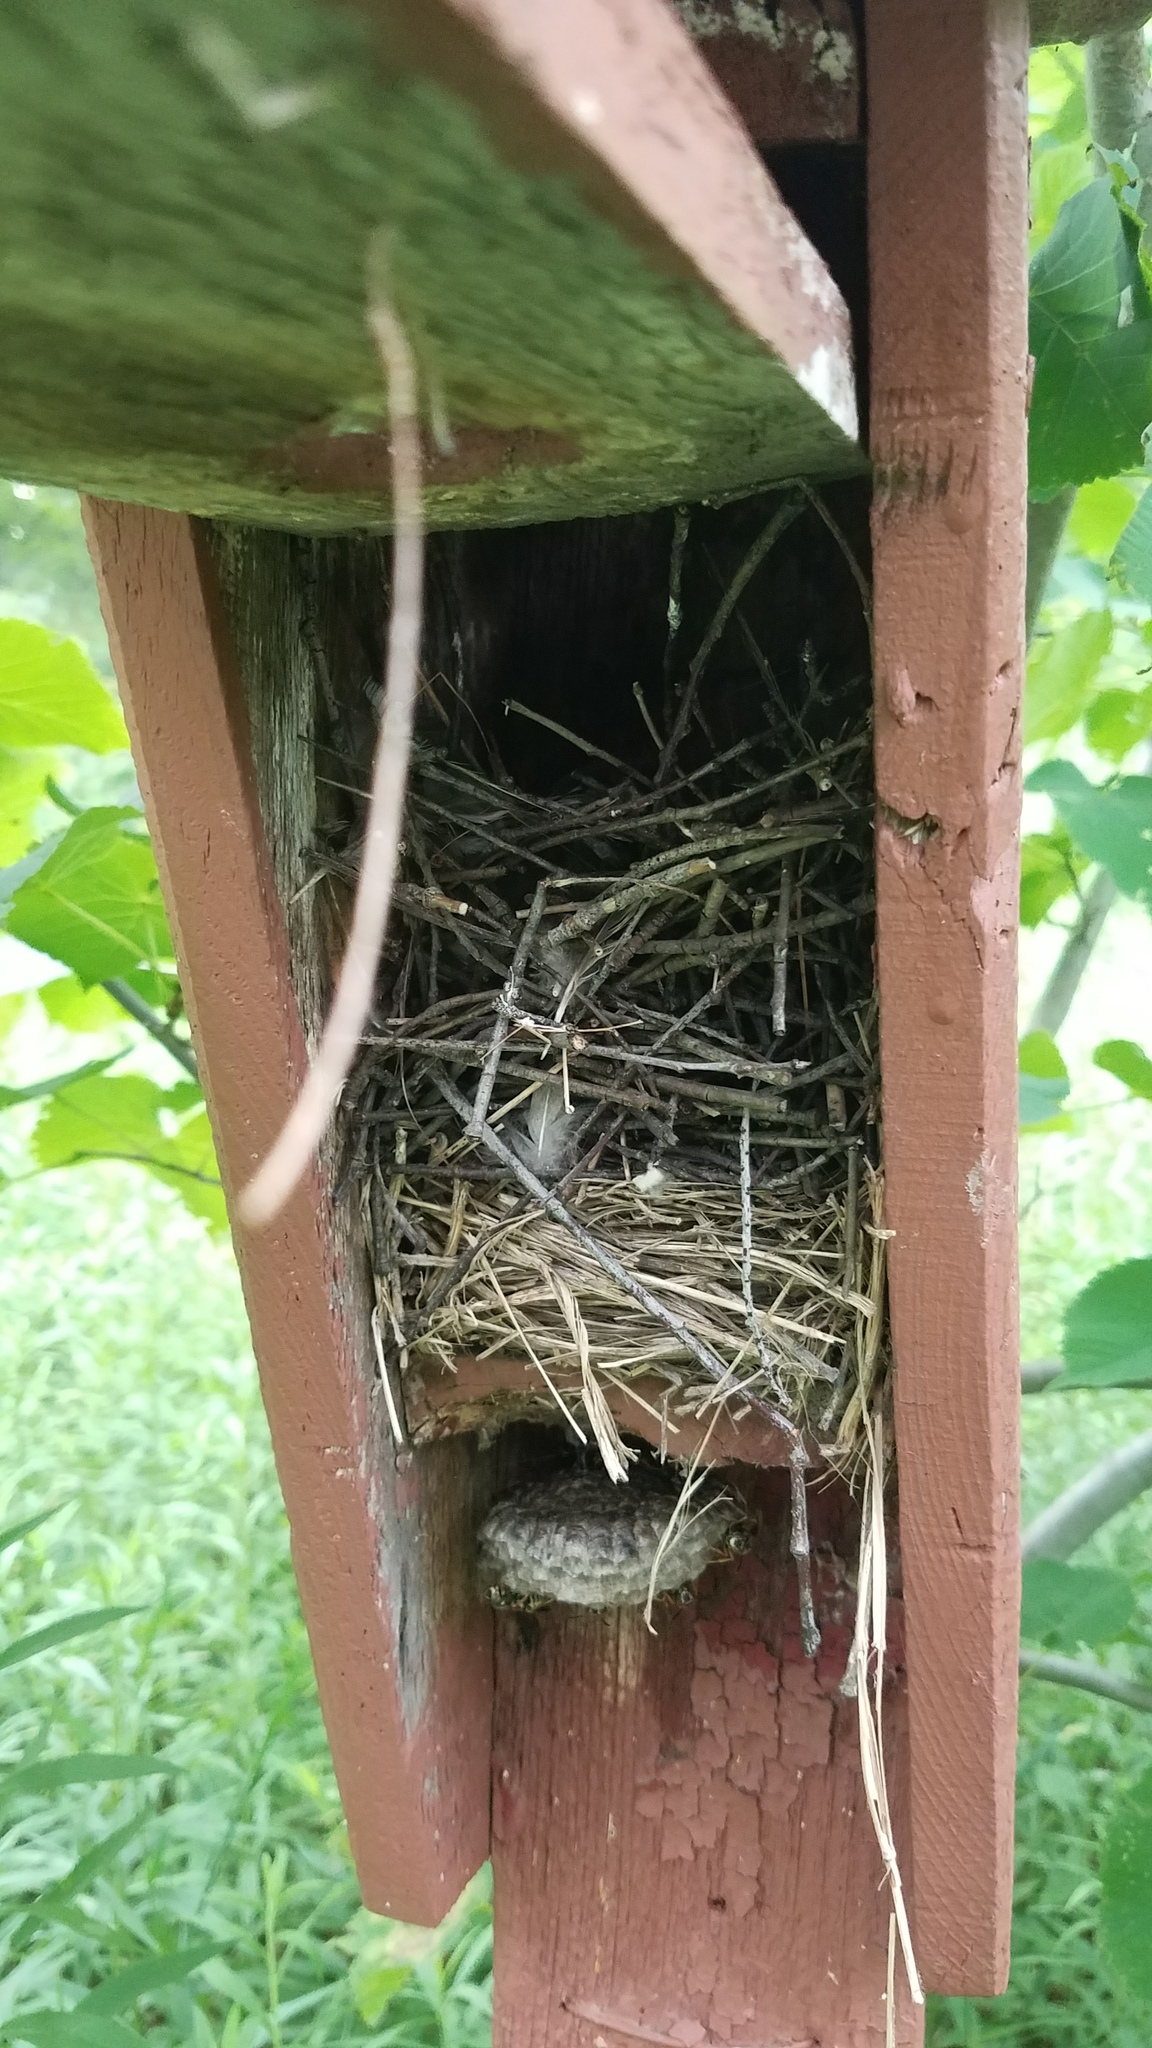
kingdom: Animalia
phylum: Chordata
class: Aves
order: Passeriformes
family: Troglodytidae
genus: Troglodytes
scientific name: Troglodytes aedon
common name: House wren
